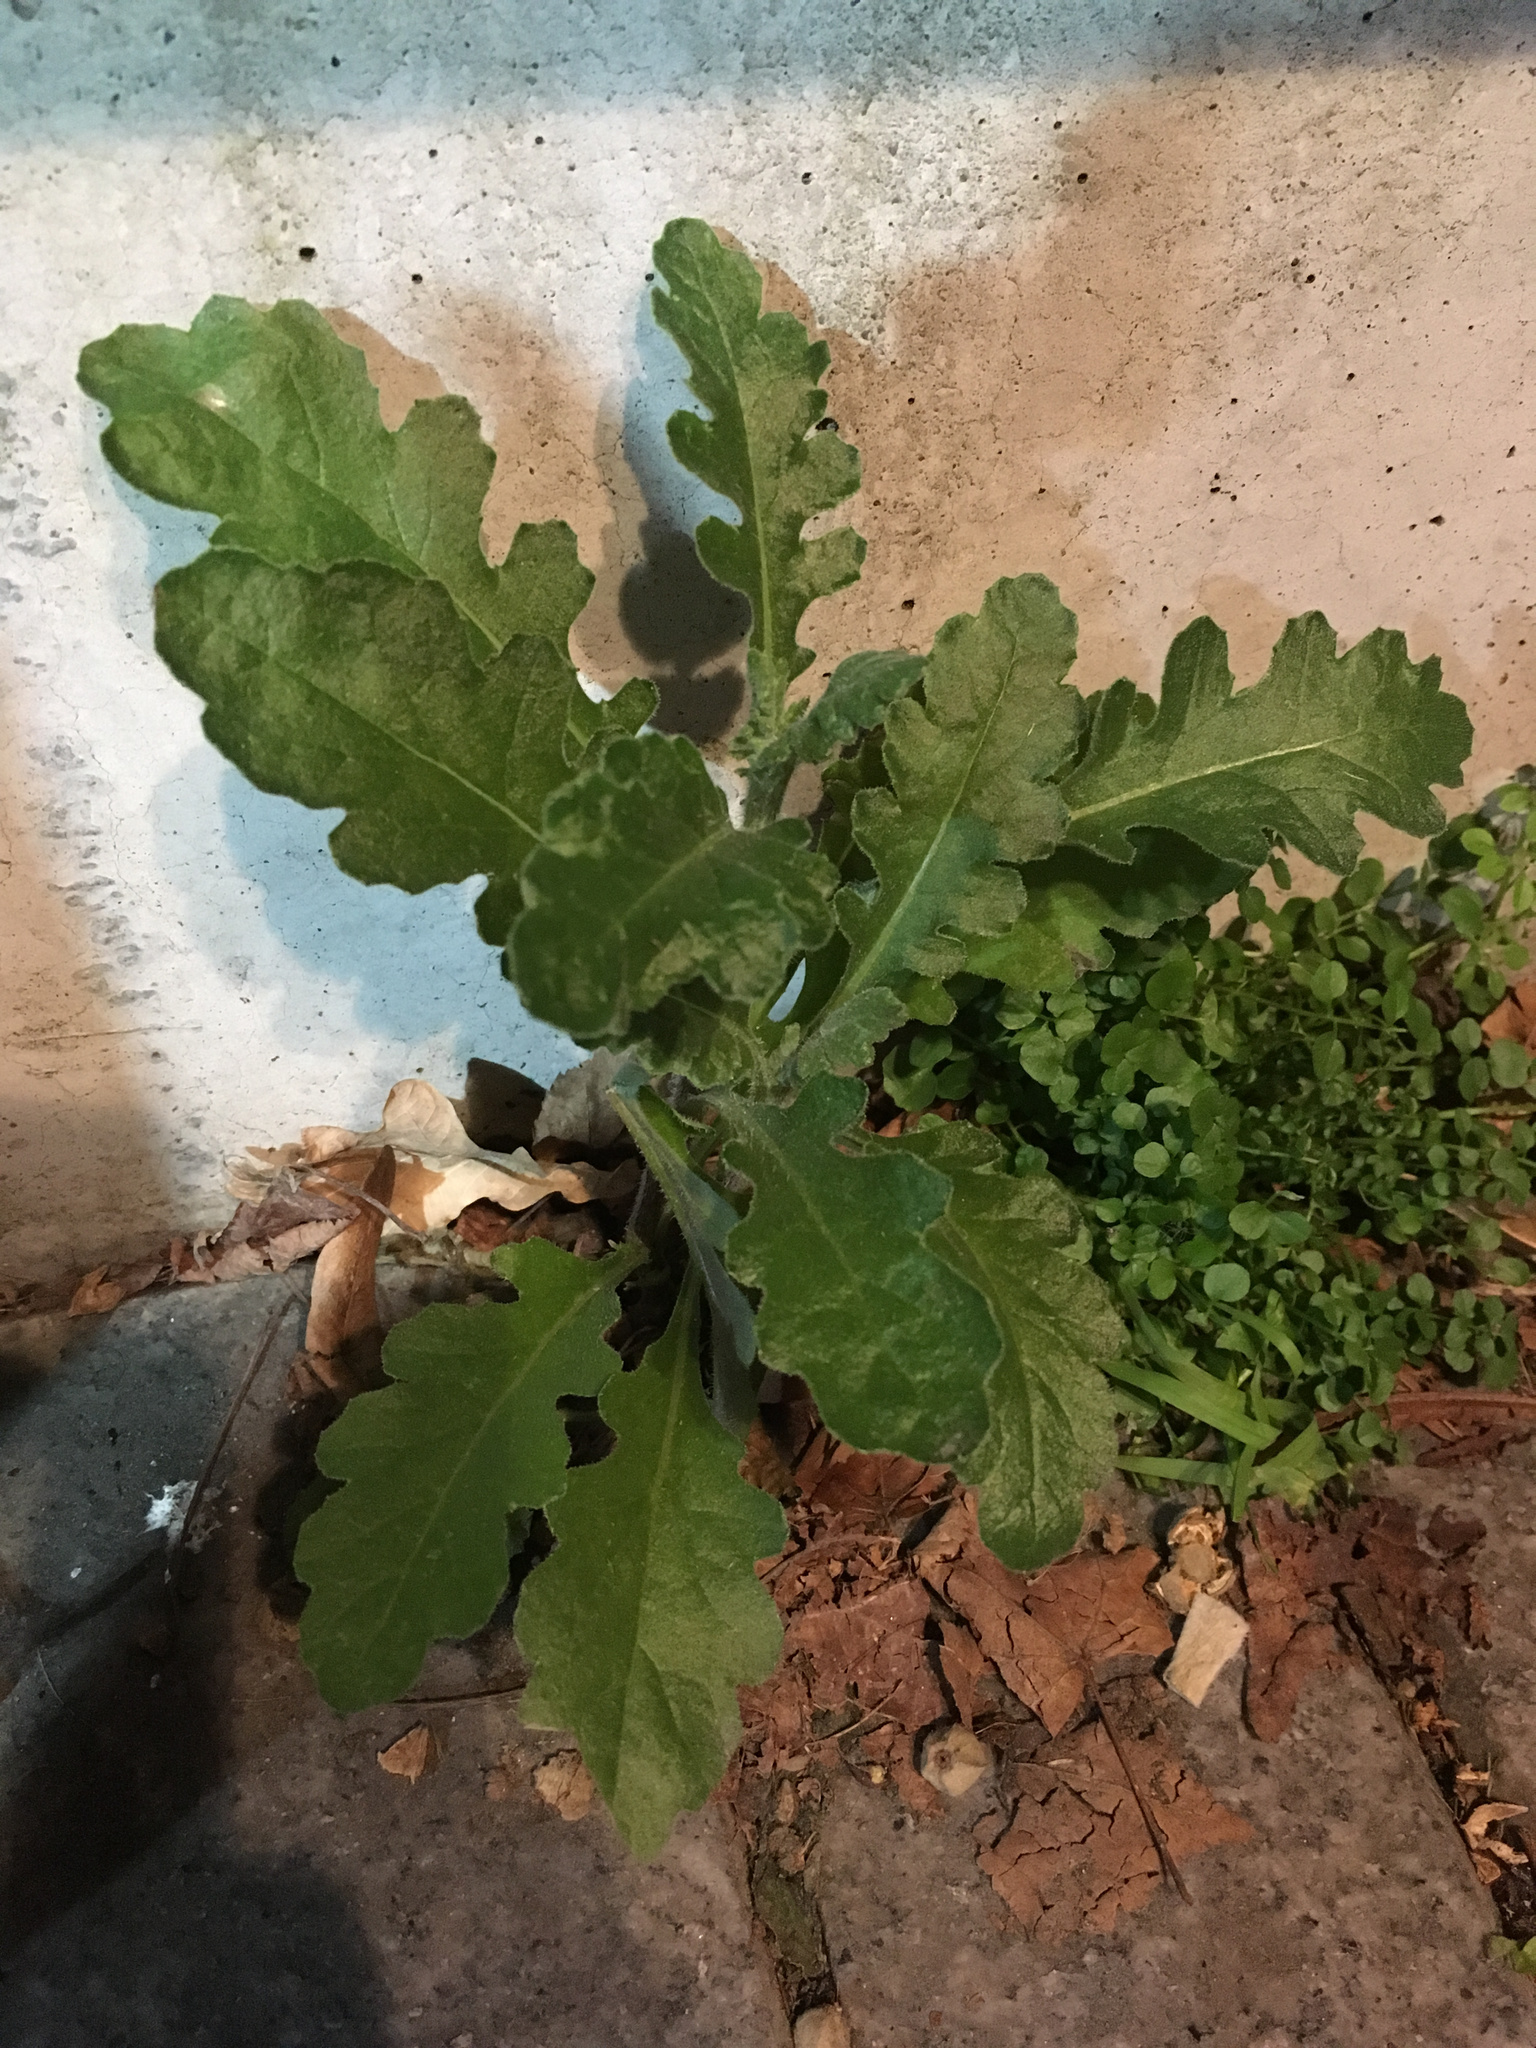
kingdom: Plantae
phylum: Tracheophyta
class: Magnoliopsida
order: Asterales
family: Asteraceae
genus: Senecio
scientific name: Senecio glomeratus
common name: Cutleaf burnweed
